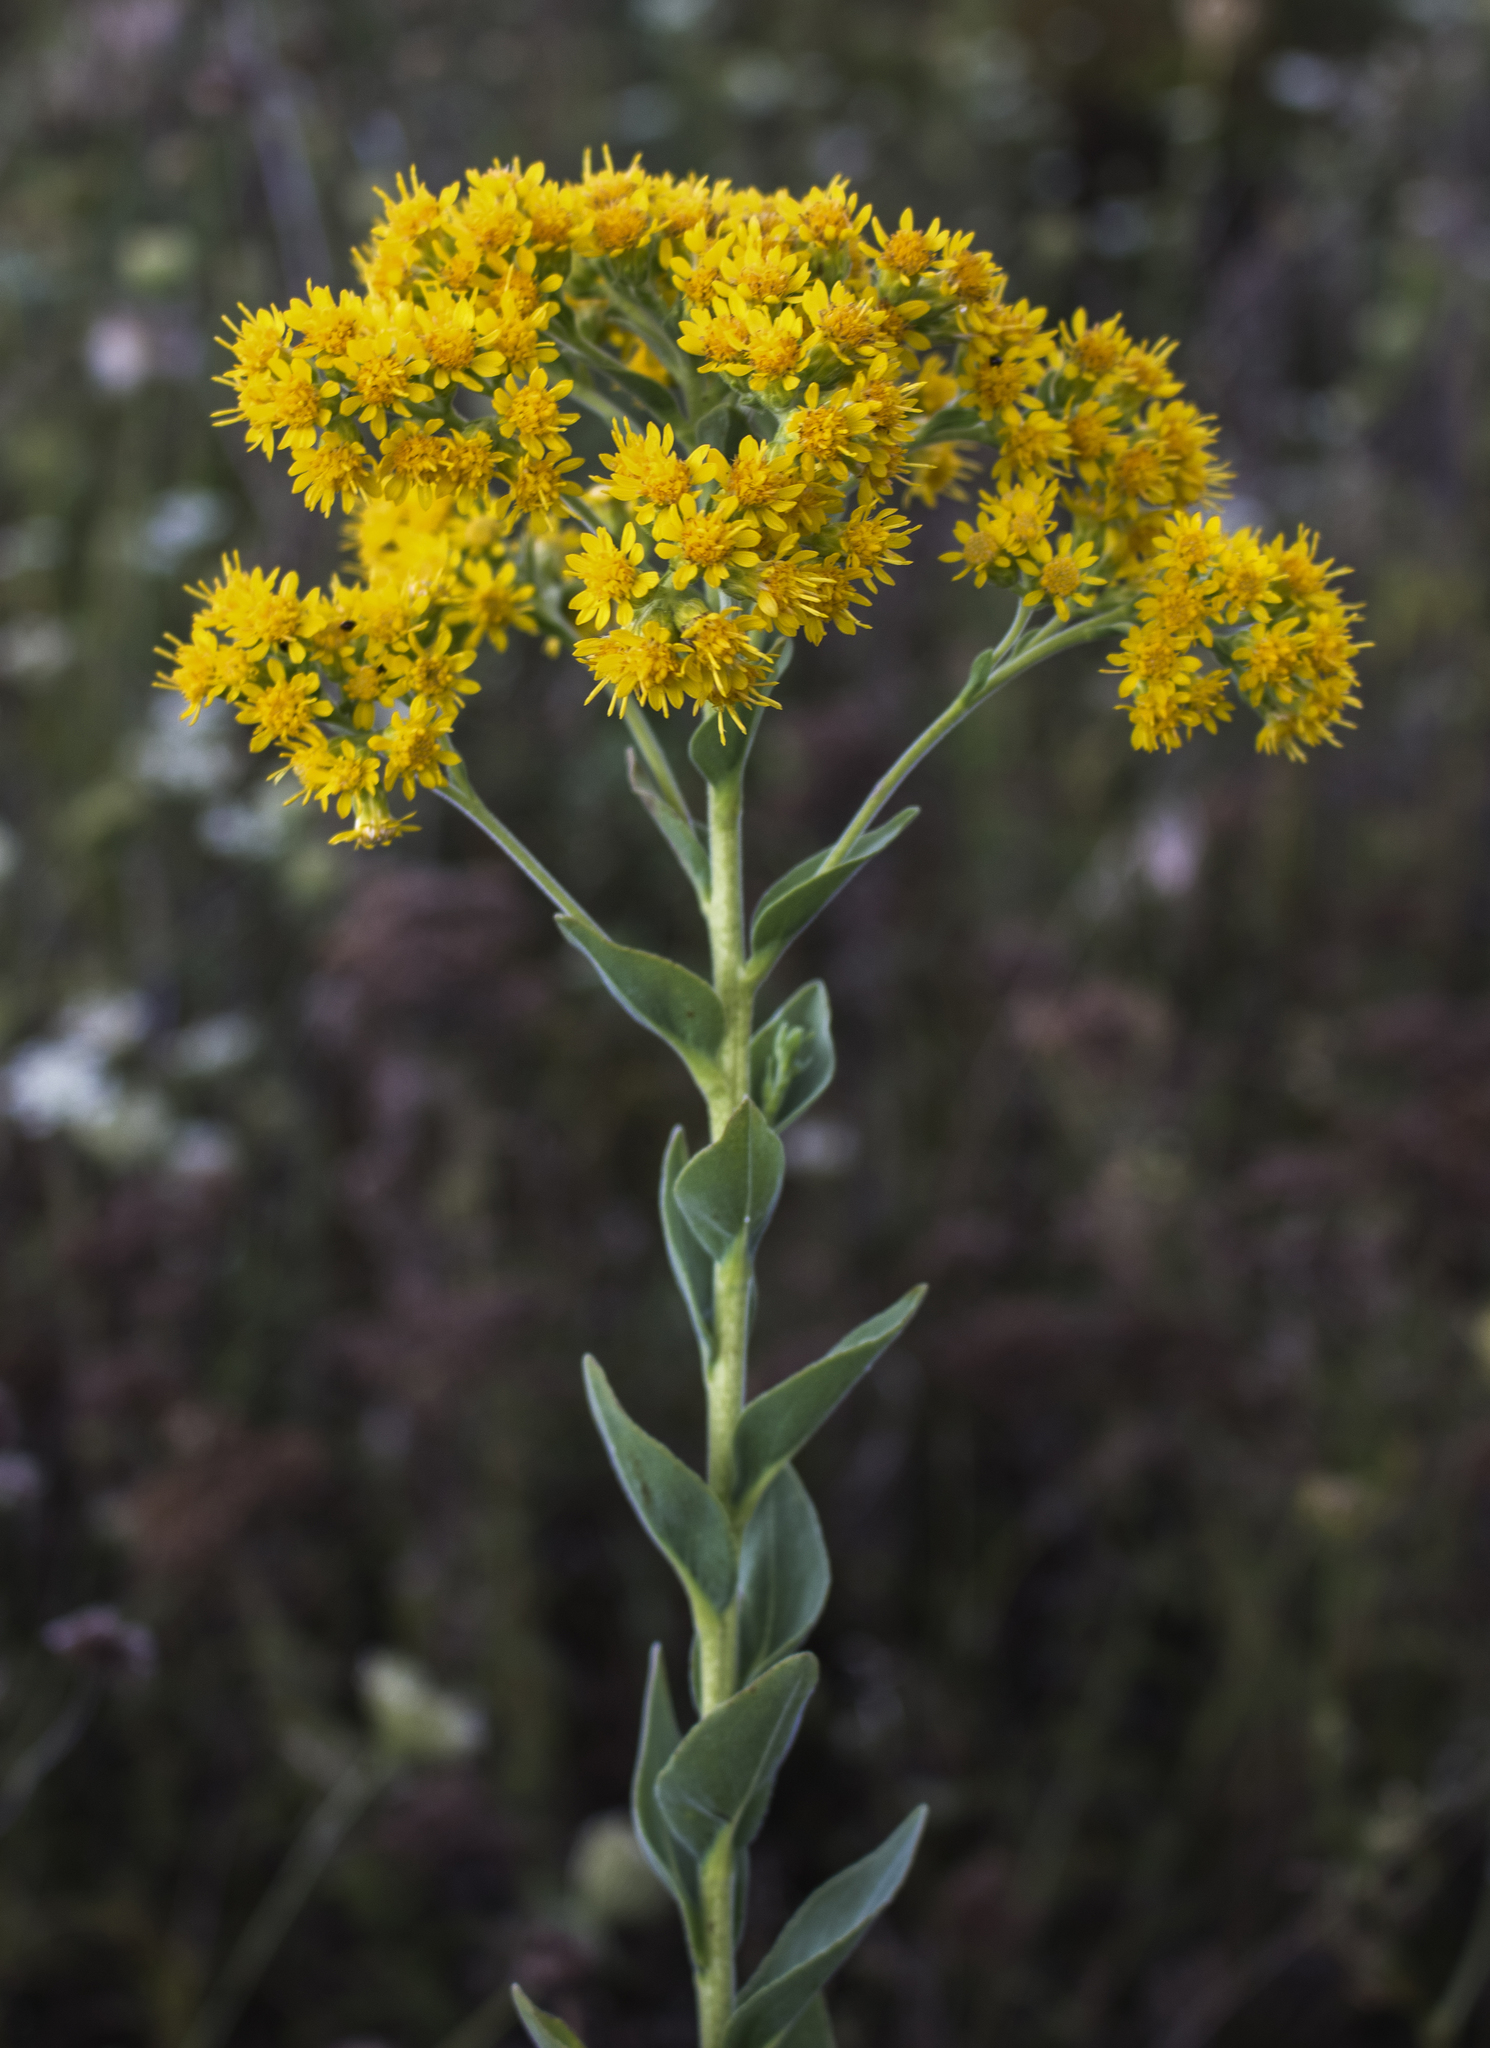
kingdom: Plantae
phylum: Tracheophyta
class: Magnoliopsida
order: Asterales
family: Asteraceae
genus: Solidago
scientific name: Solidago rigida
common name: Rigid goldenrod
